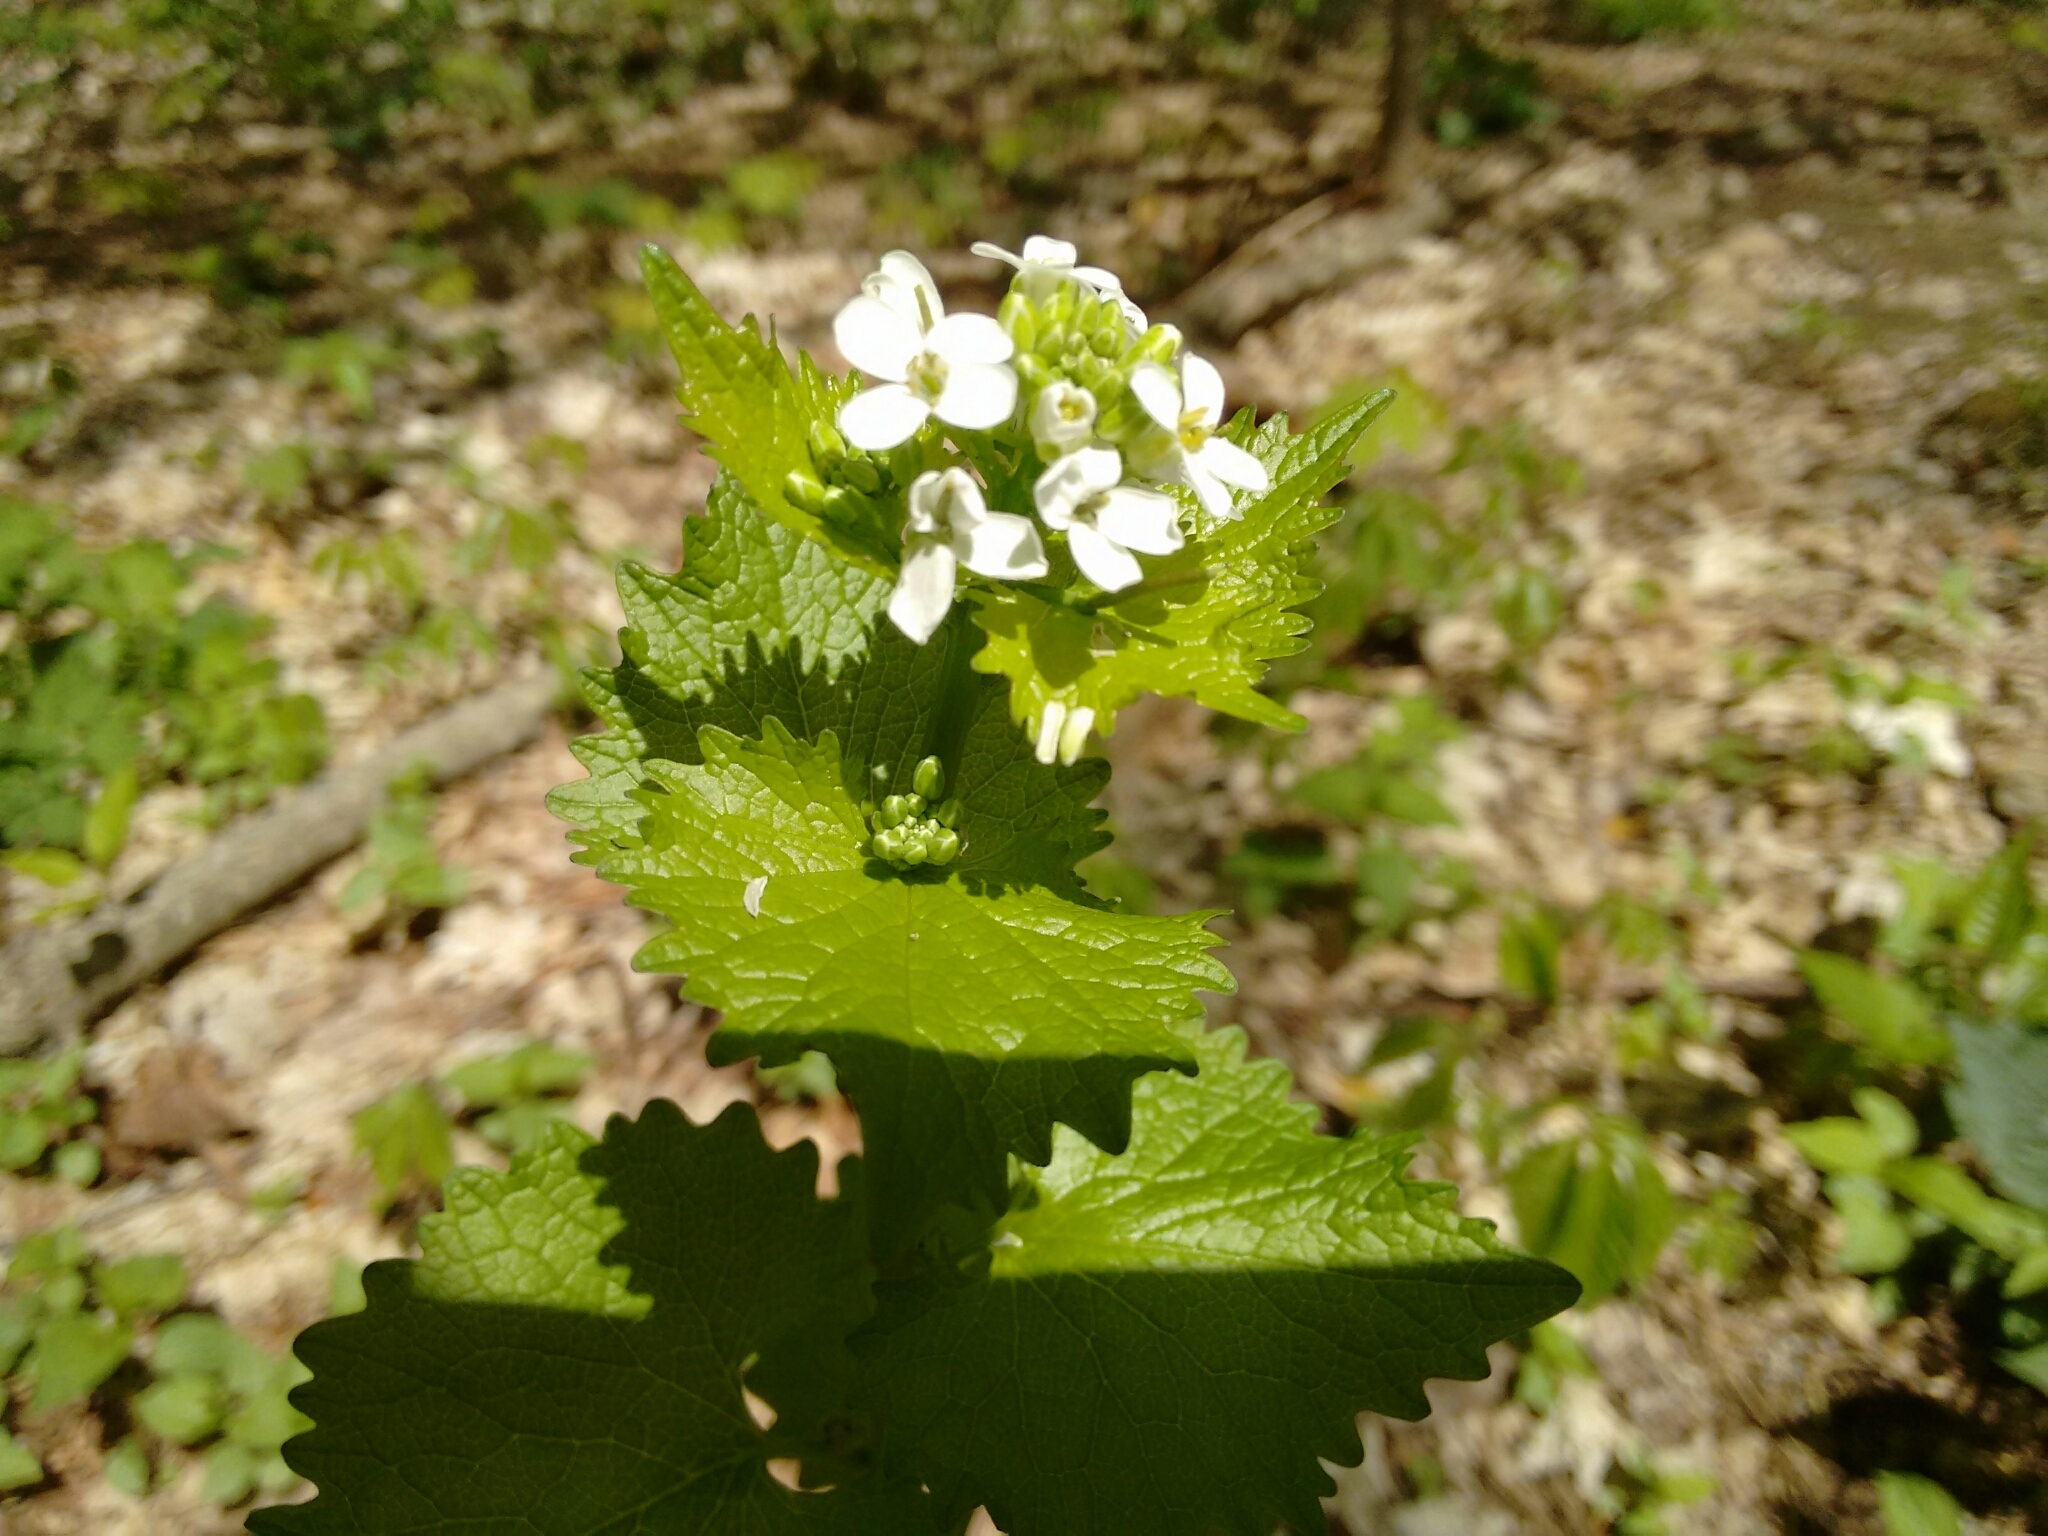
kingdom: Plantae
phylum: Tracheophyta
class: Magnoliopsida
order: Brassicales
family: Brassicaceae
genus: Alliaria
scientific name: Alliaria petiolata
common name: Garlic mustard
